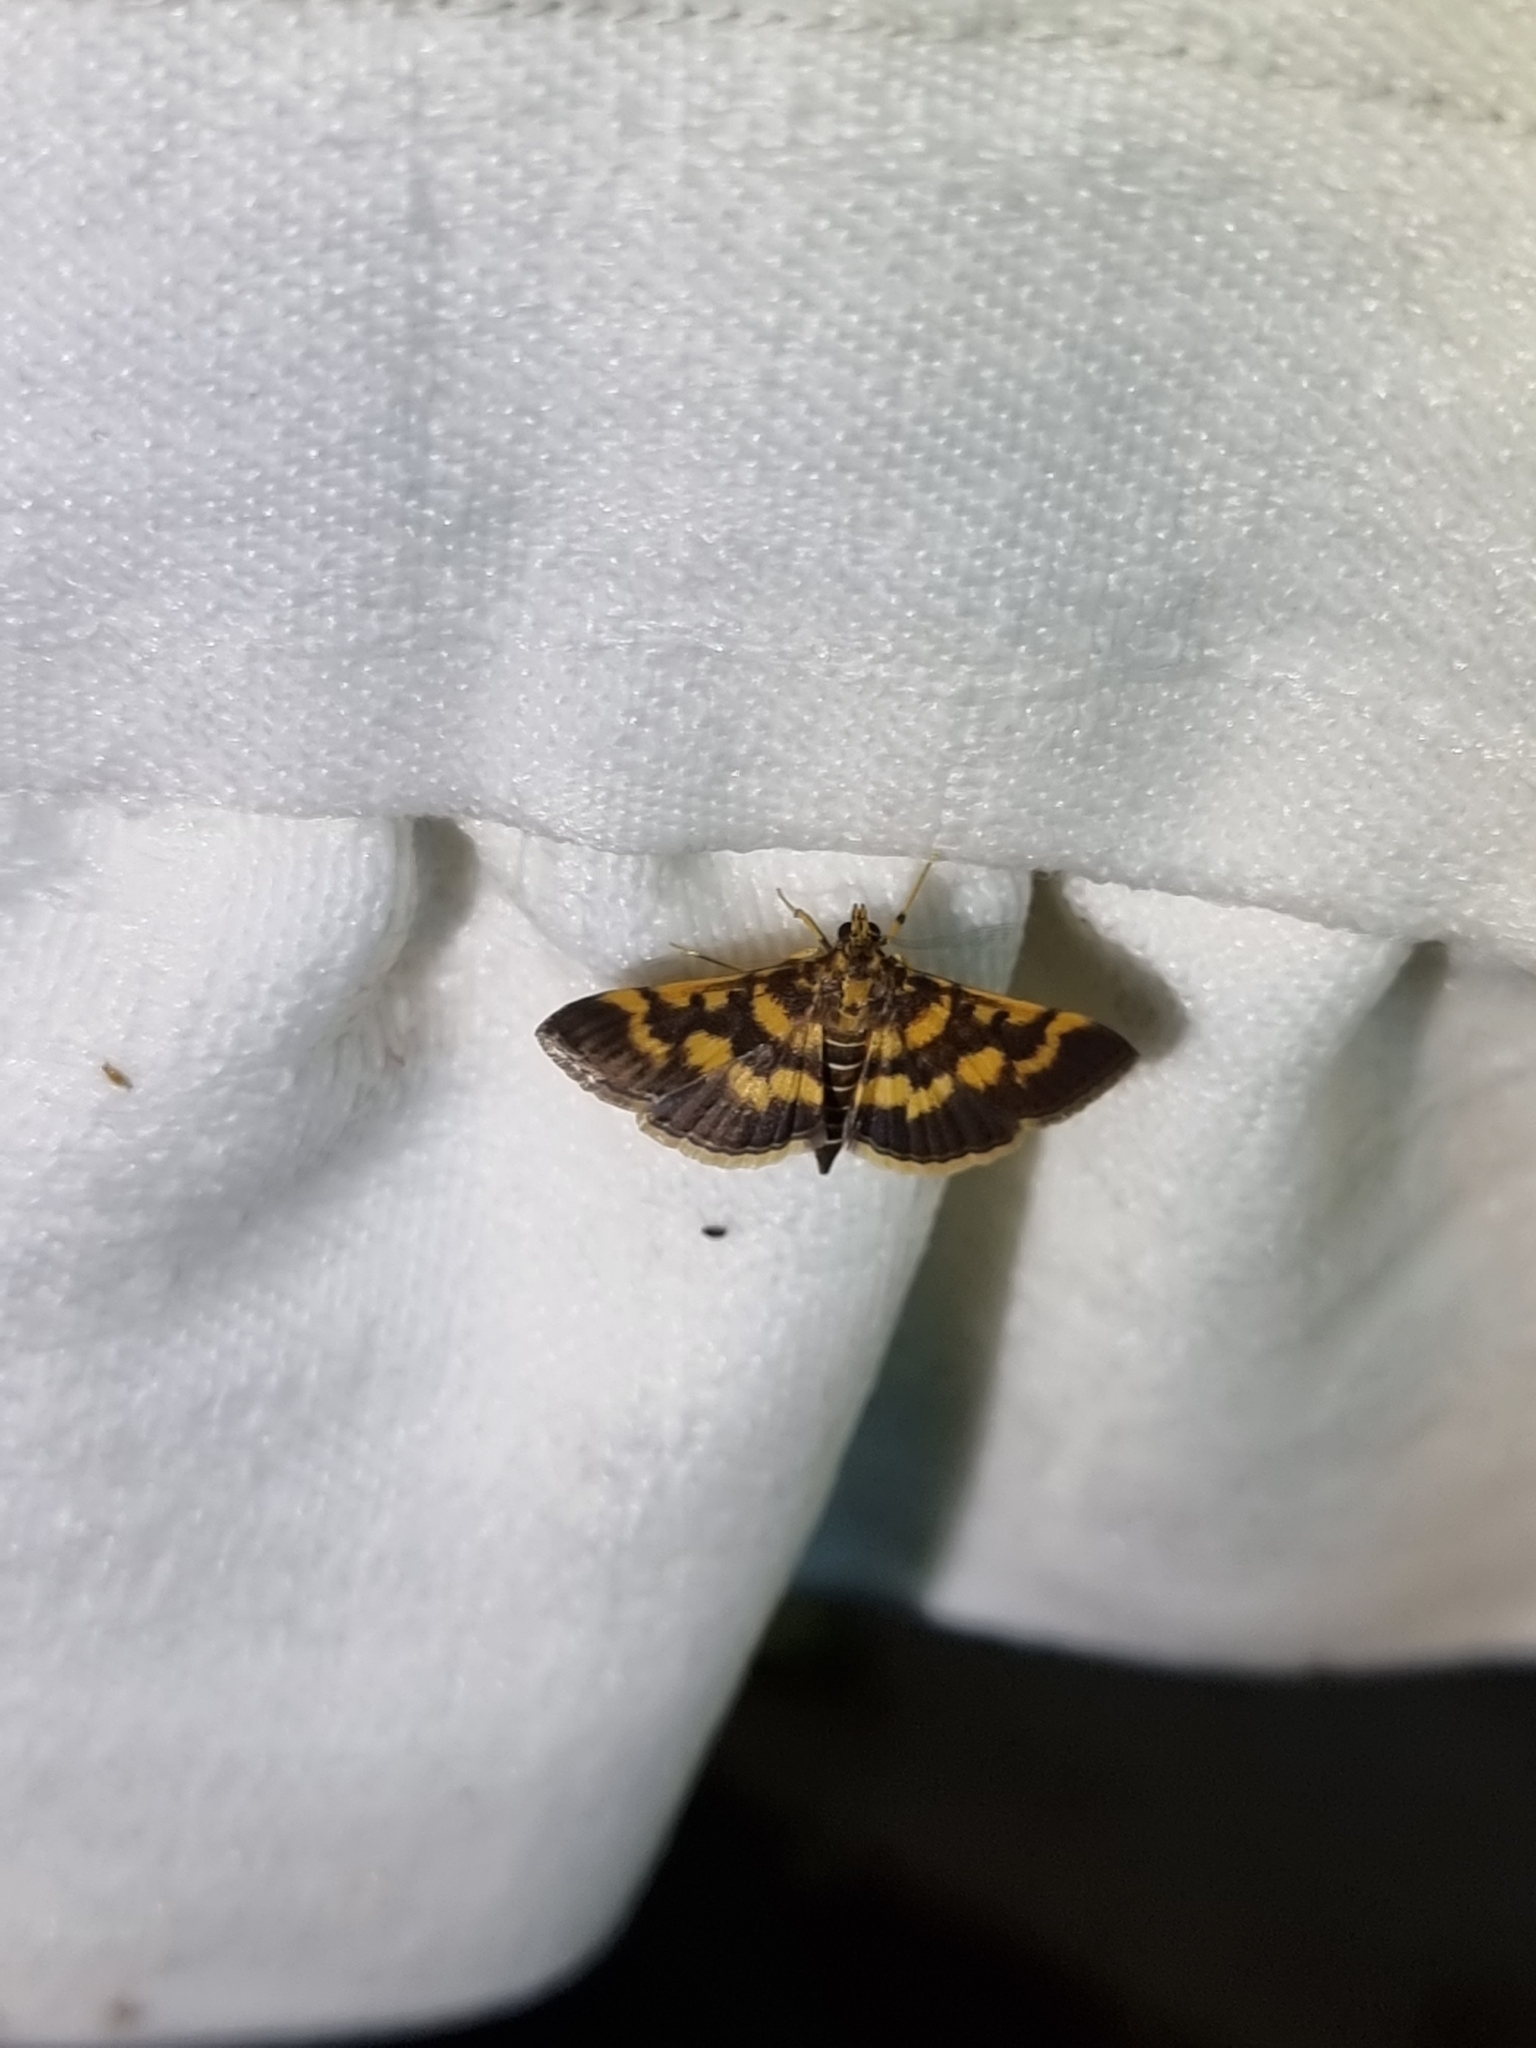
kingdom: Animalia
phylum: Arthropoda
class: Insecta
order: Lepidoptera
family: Crambidae
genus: Omiodes
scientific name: Omiodes diemenalis
